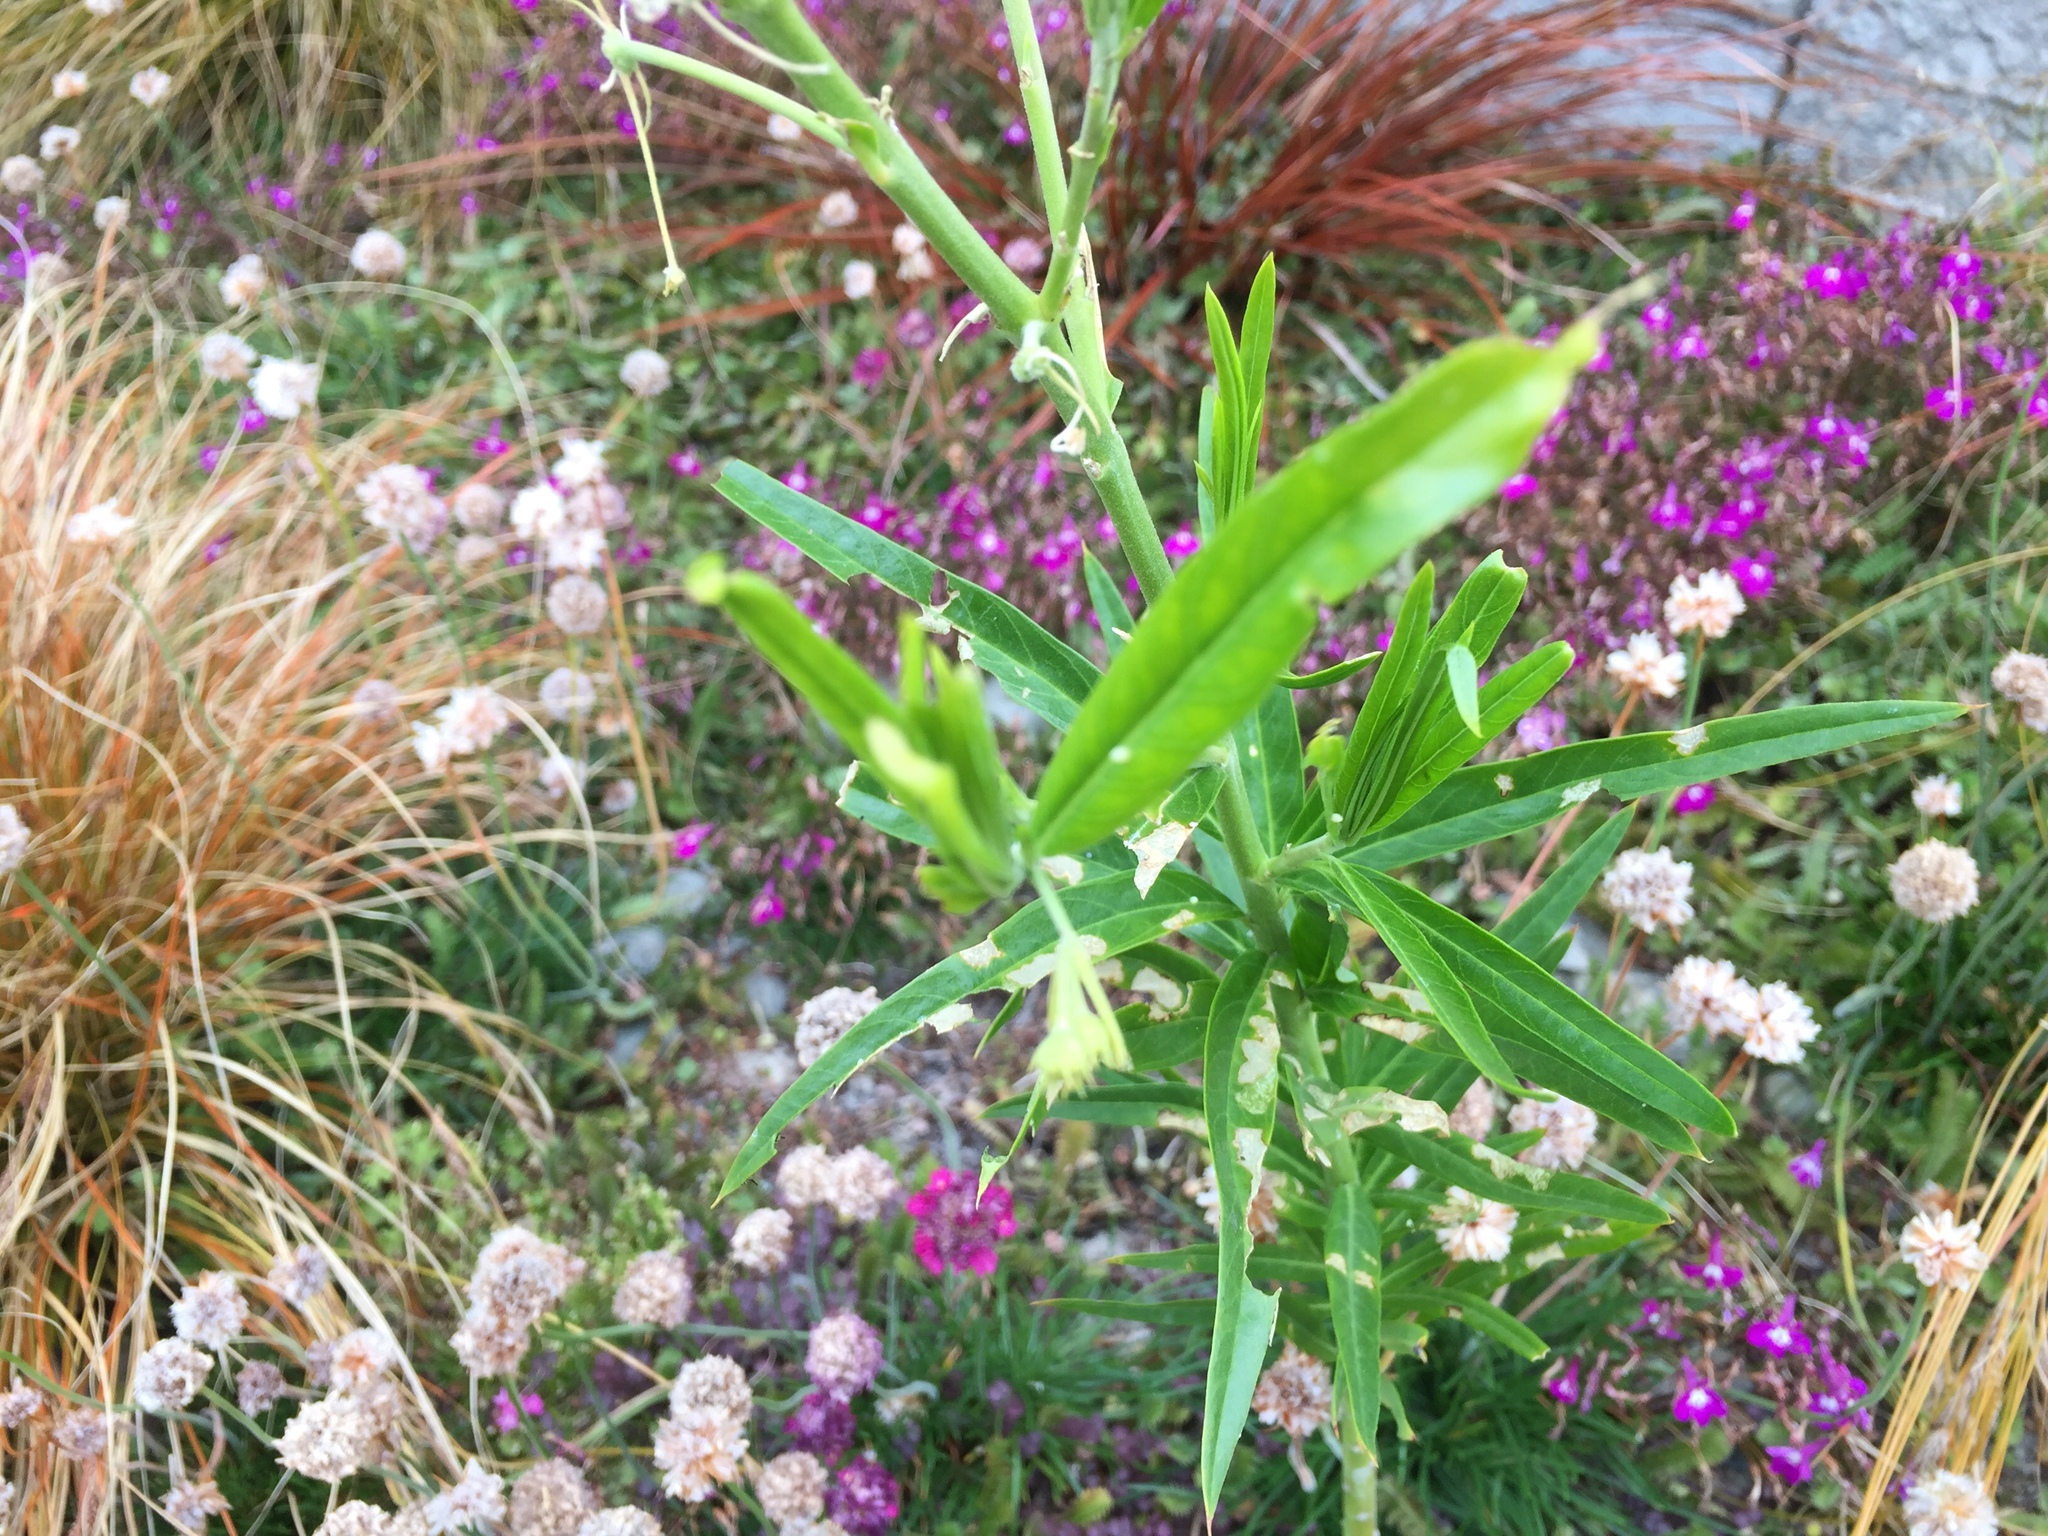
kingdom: Animalia
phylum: Arthropoda
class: Insecta
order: Lepidoptera
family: Nymphalidae
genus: Danaus
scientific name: Danaus plexippus
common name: Monarch
